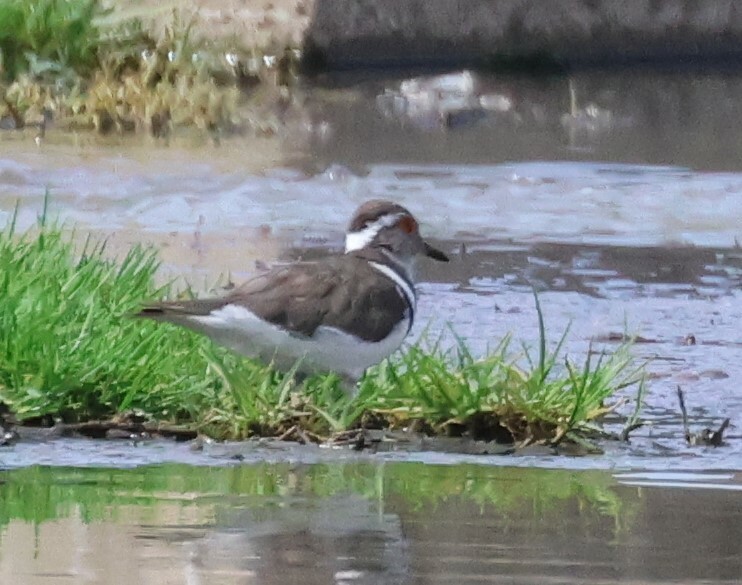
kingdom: Animalia
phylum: Chordata
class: Aves
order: Charadriiformes
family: Charadriidae
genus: Charadrius
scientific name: Charadrius tricollaris
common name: Three-banded plover
